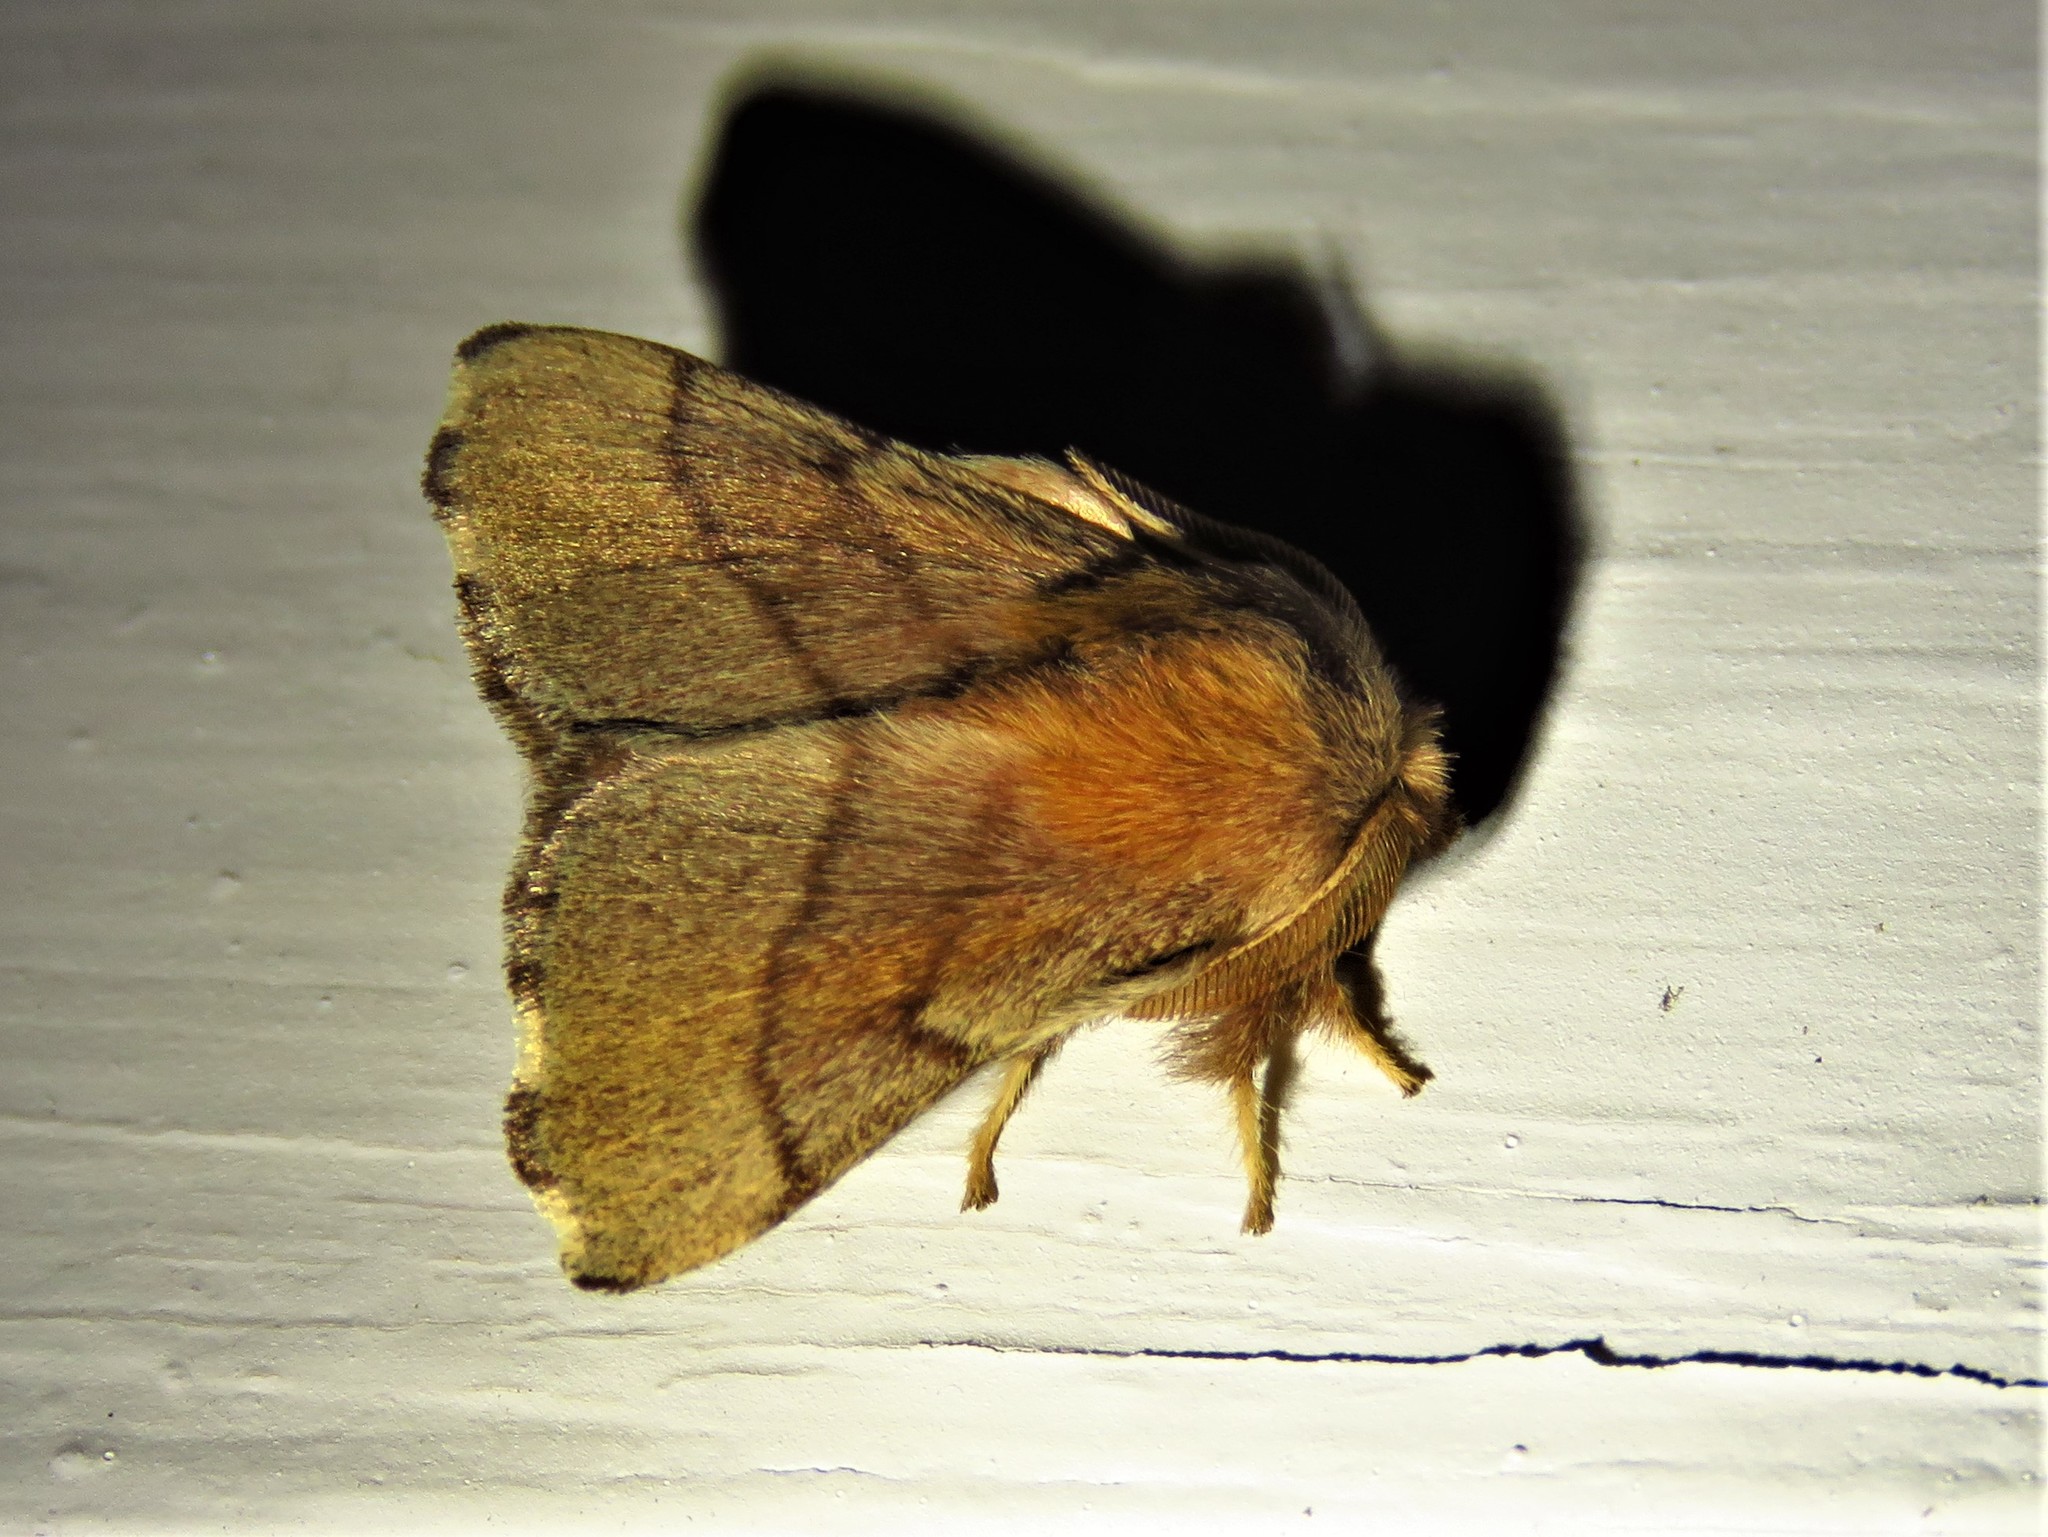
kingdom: Animalia
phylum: Arthropoda
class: Insecta
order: Lepidoptera
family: Lasiocampidae
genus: Malacosoma
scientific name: Malacosoma disstria
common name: Forest tent caterpillar
